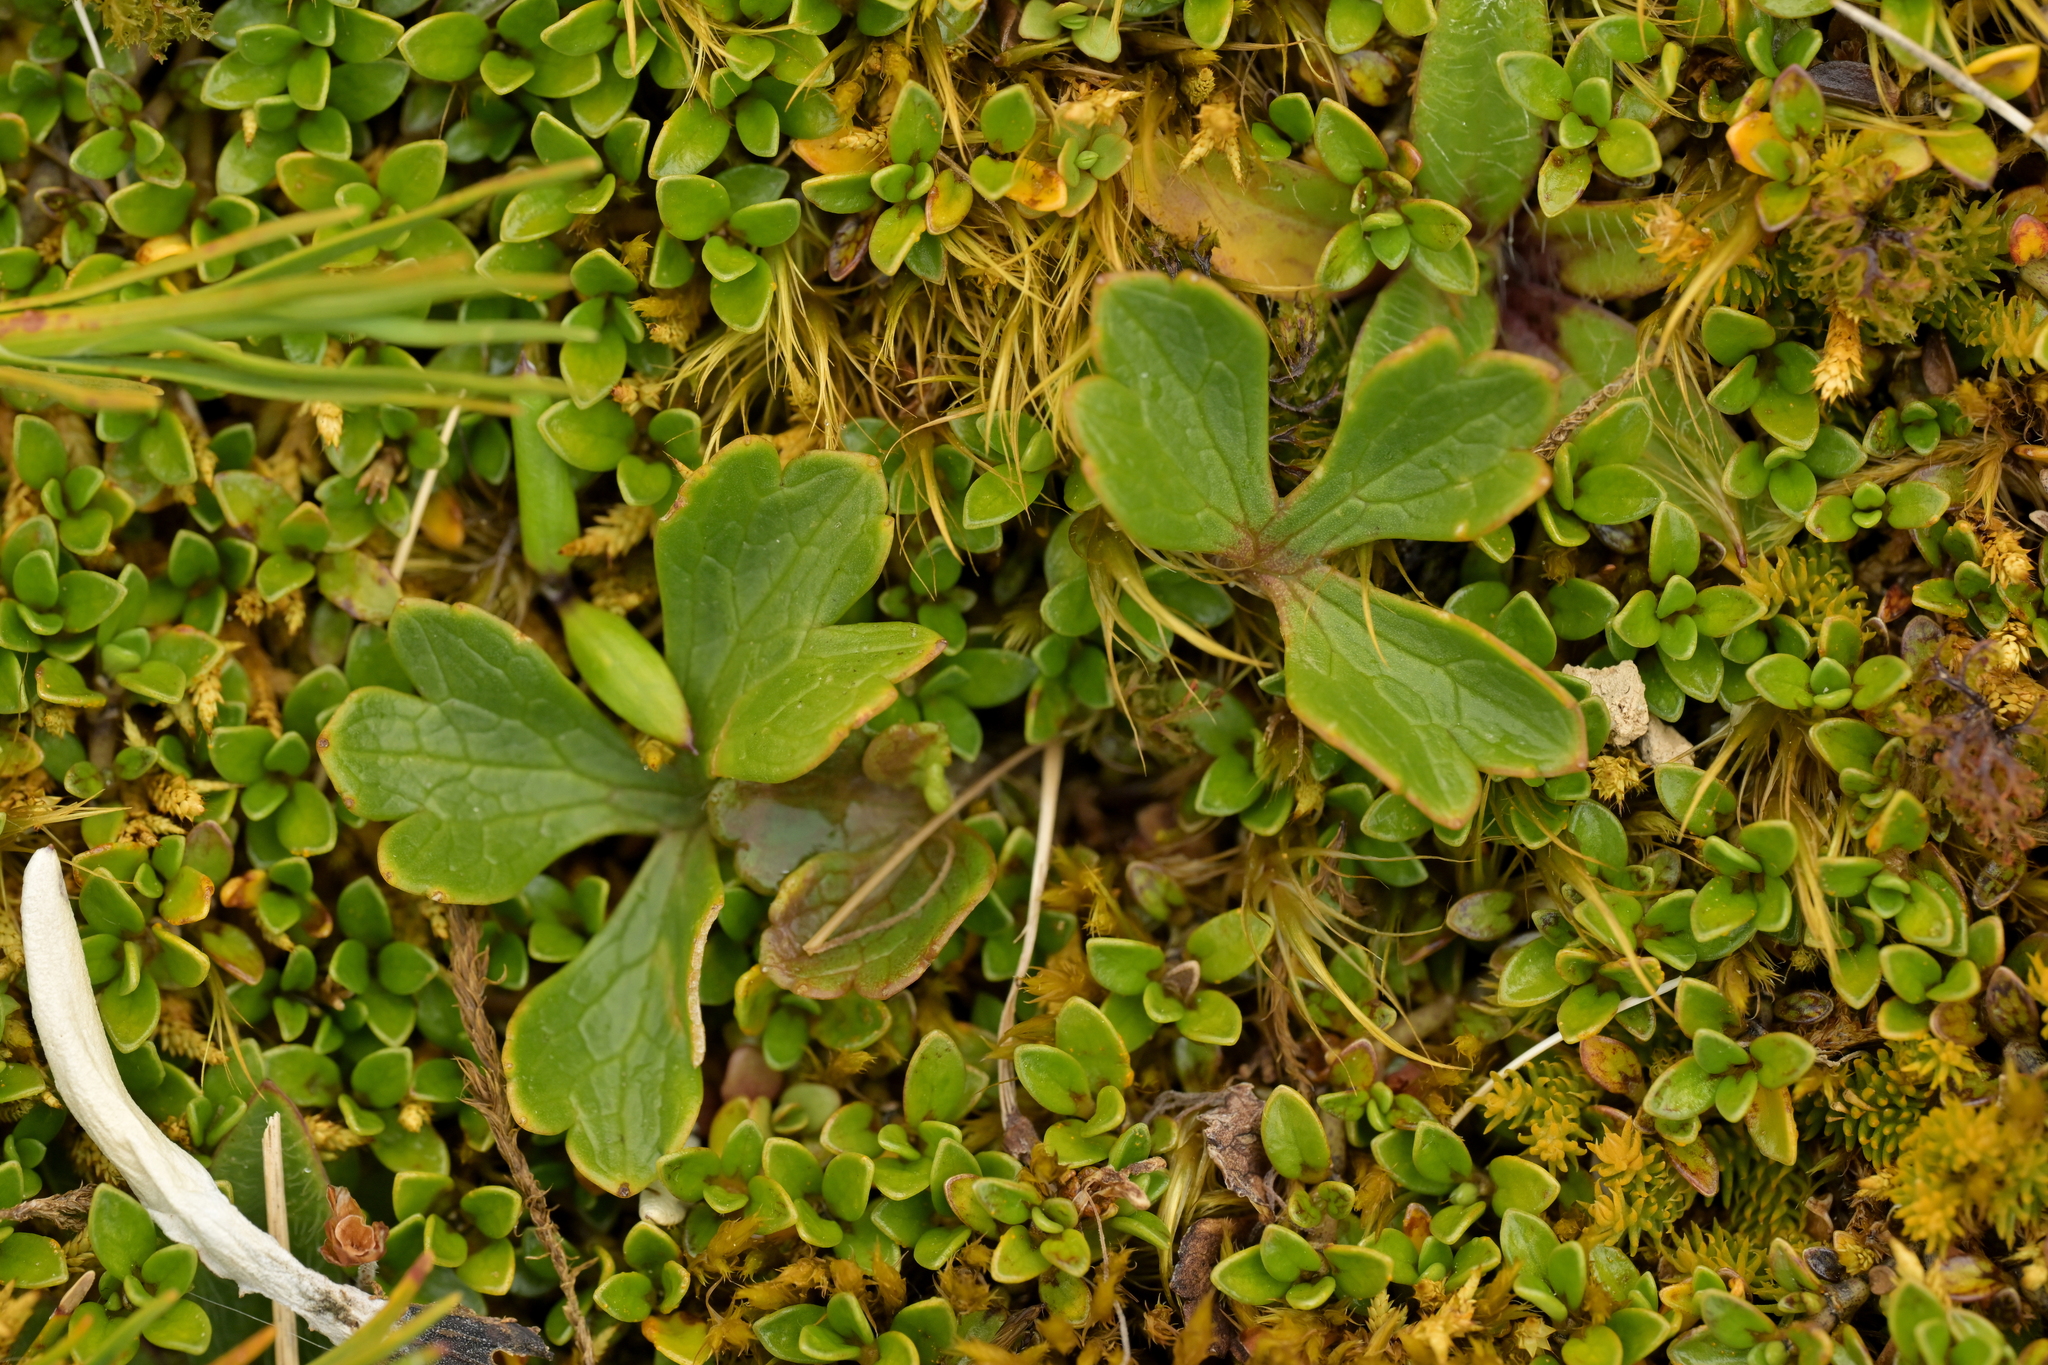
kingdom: Plantae
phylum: Tracheophyta
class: Magnoliopsida
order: Ranunculales
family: Ranunculaceae
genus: Ranunculus
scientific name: Ranunculus verticillatus
